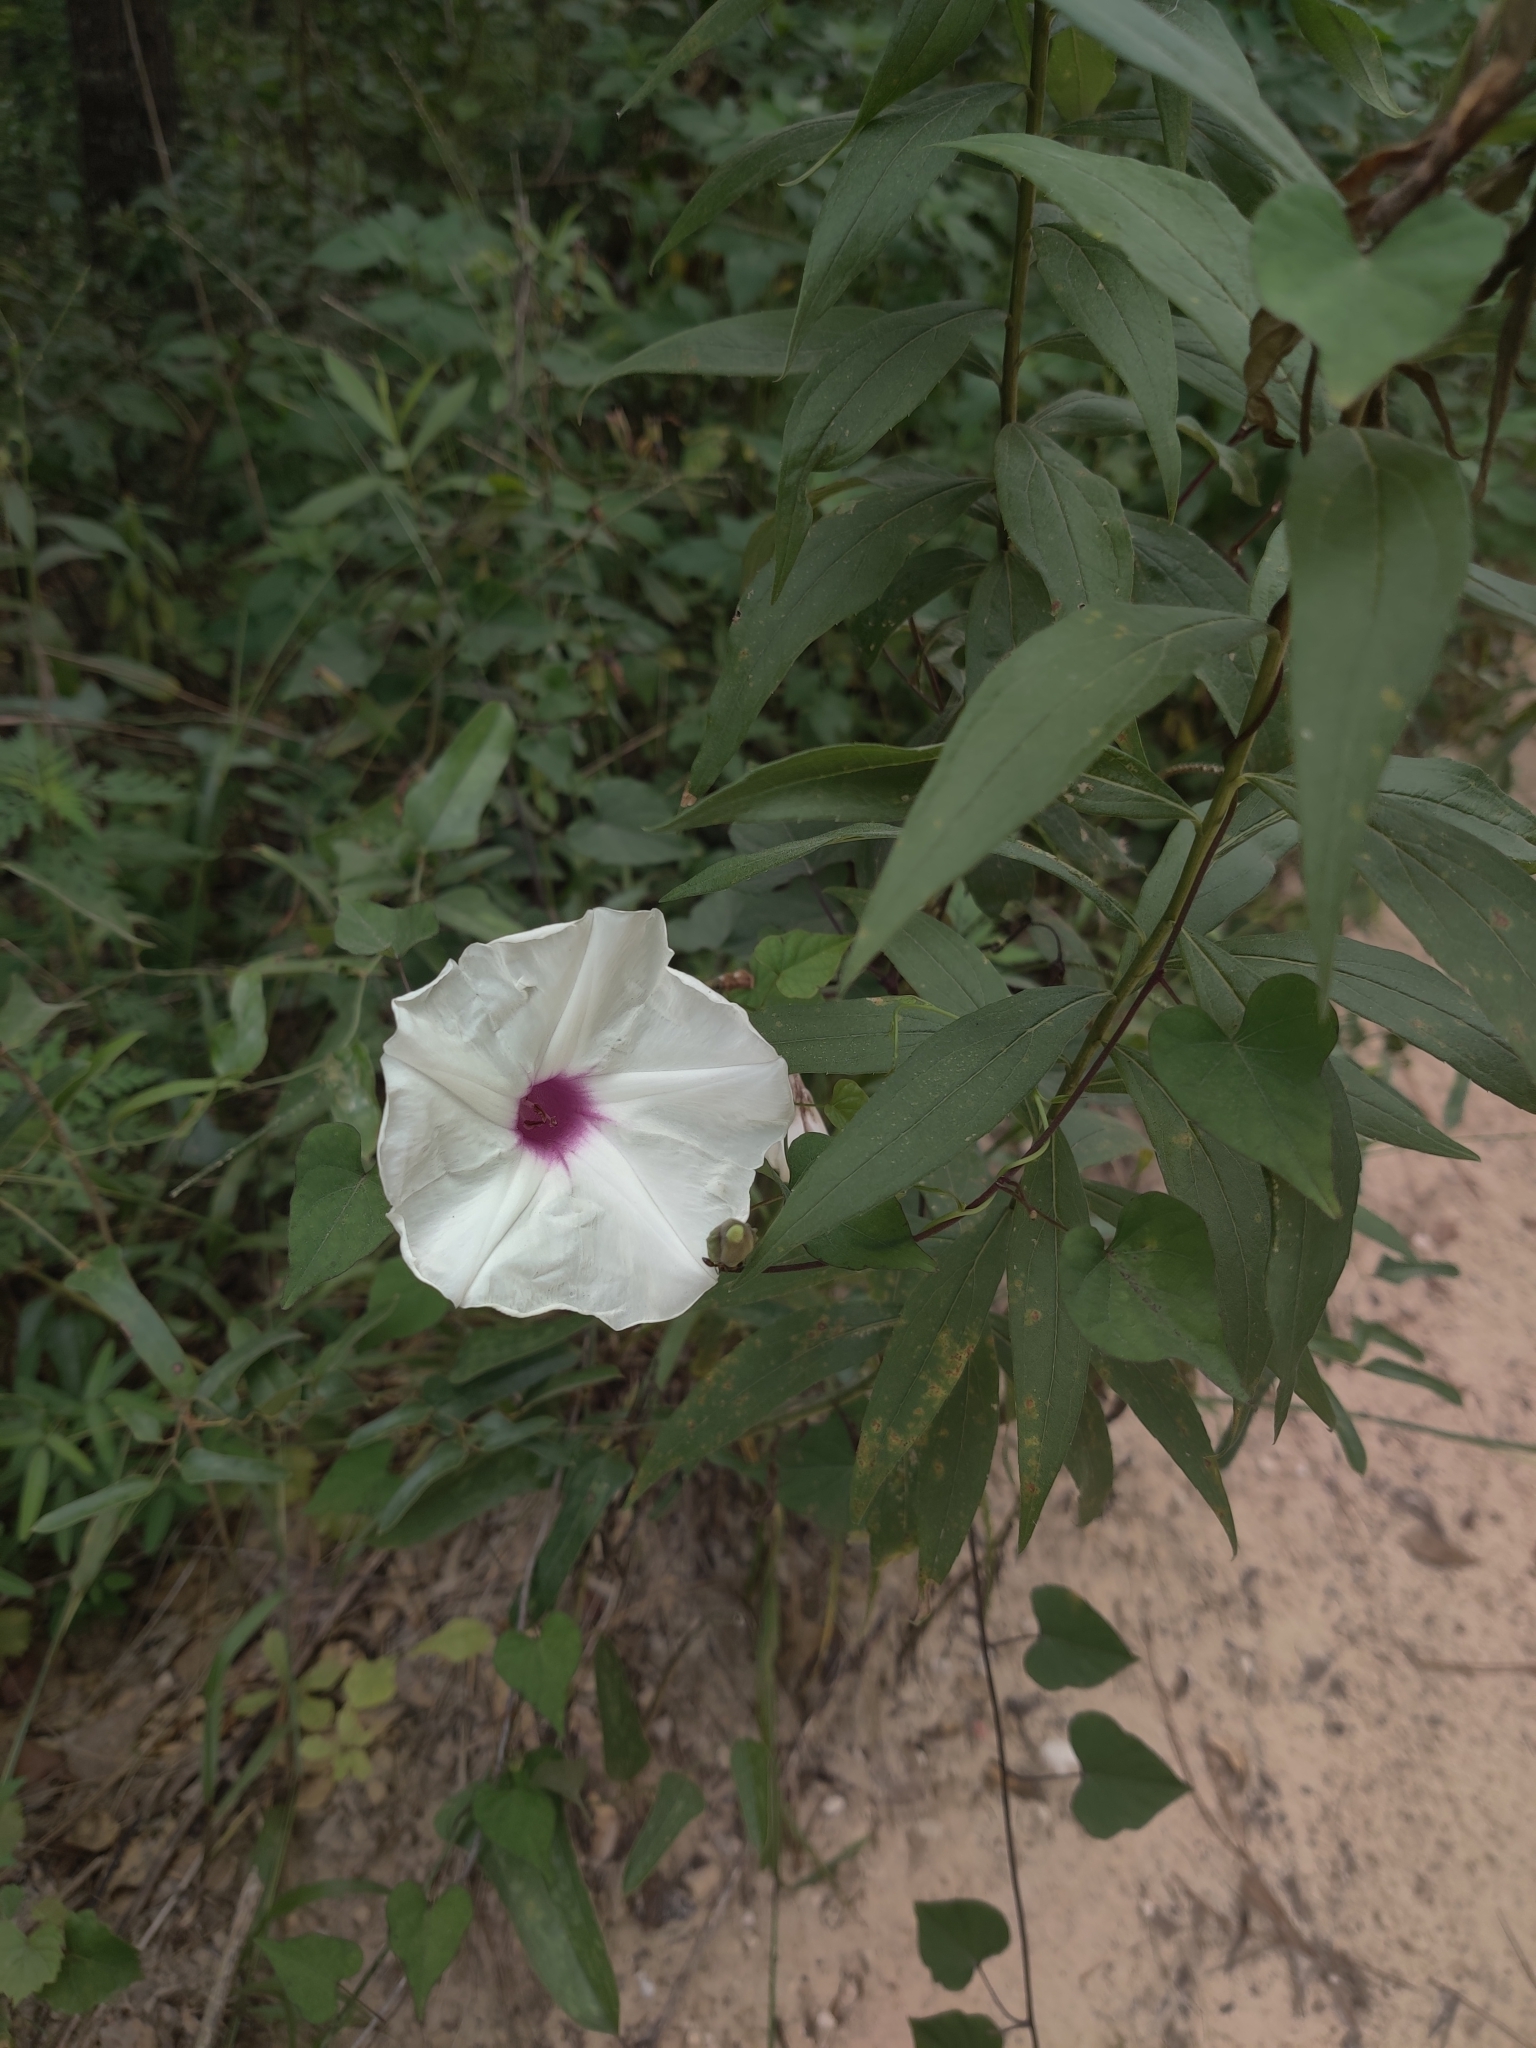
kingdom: Plantae
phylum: Tracheophyta
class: Magnoliopsida
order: Solanales
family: Convolvulaceae
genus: Ipomoea
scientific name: Ipomoea pandurata
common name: Man-of-the-earth
